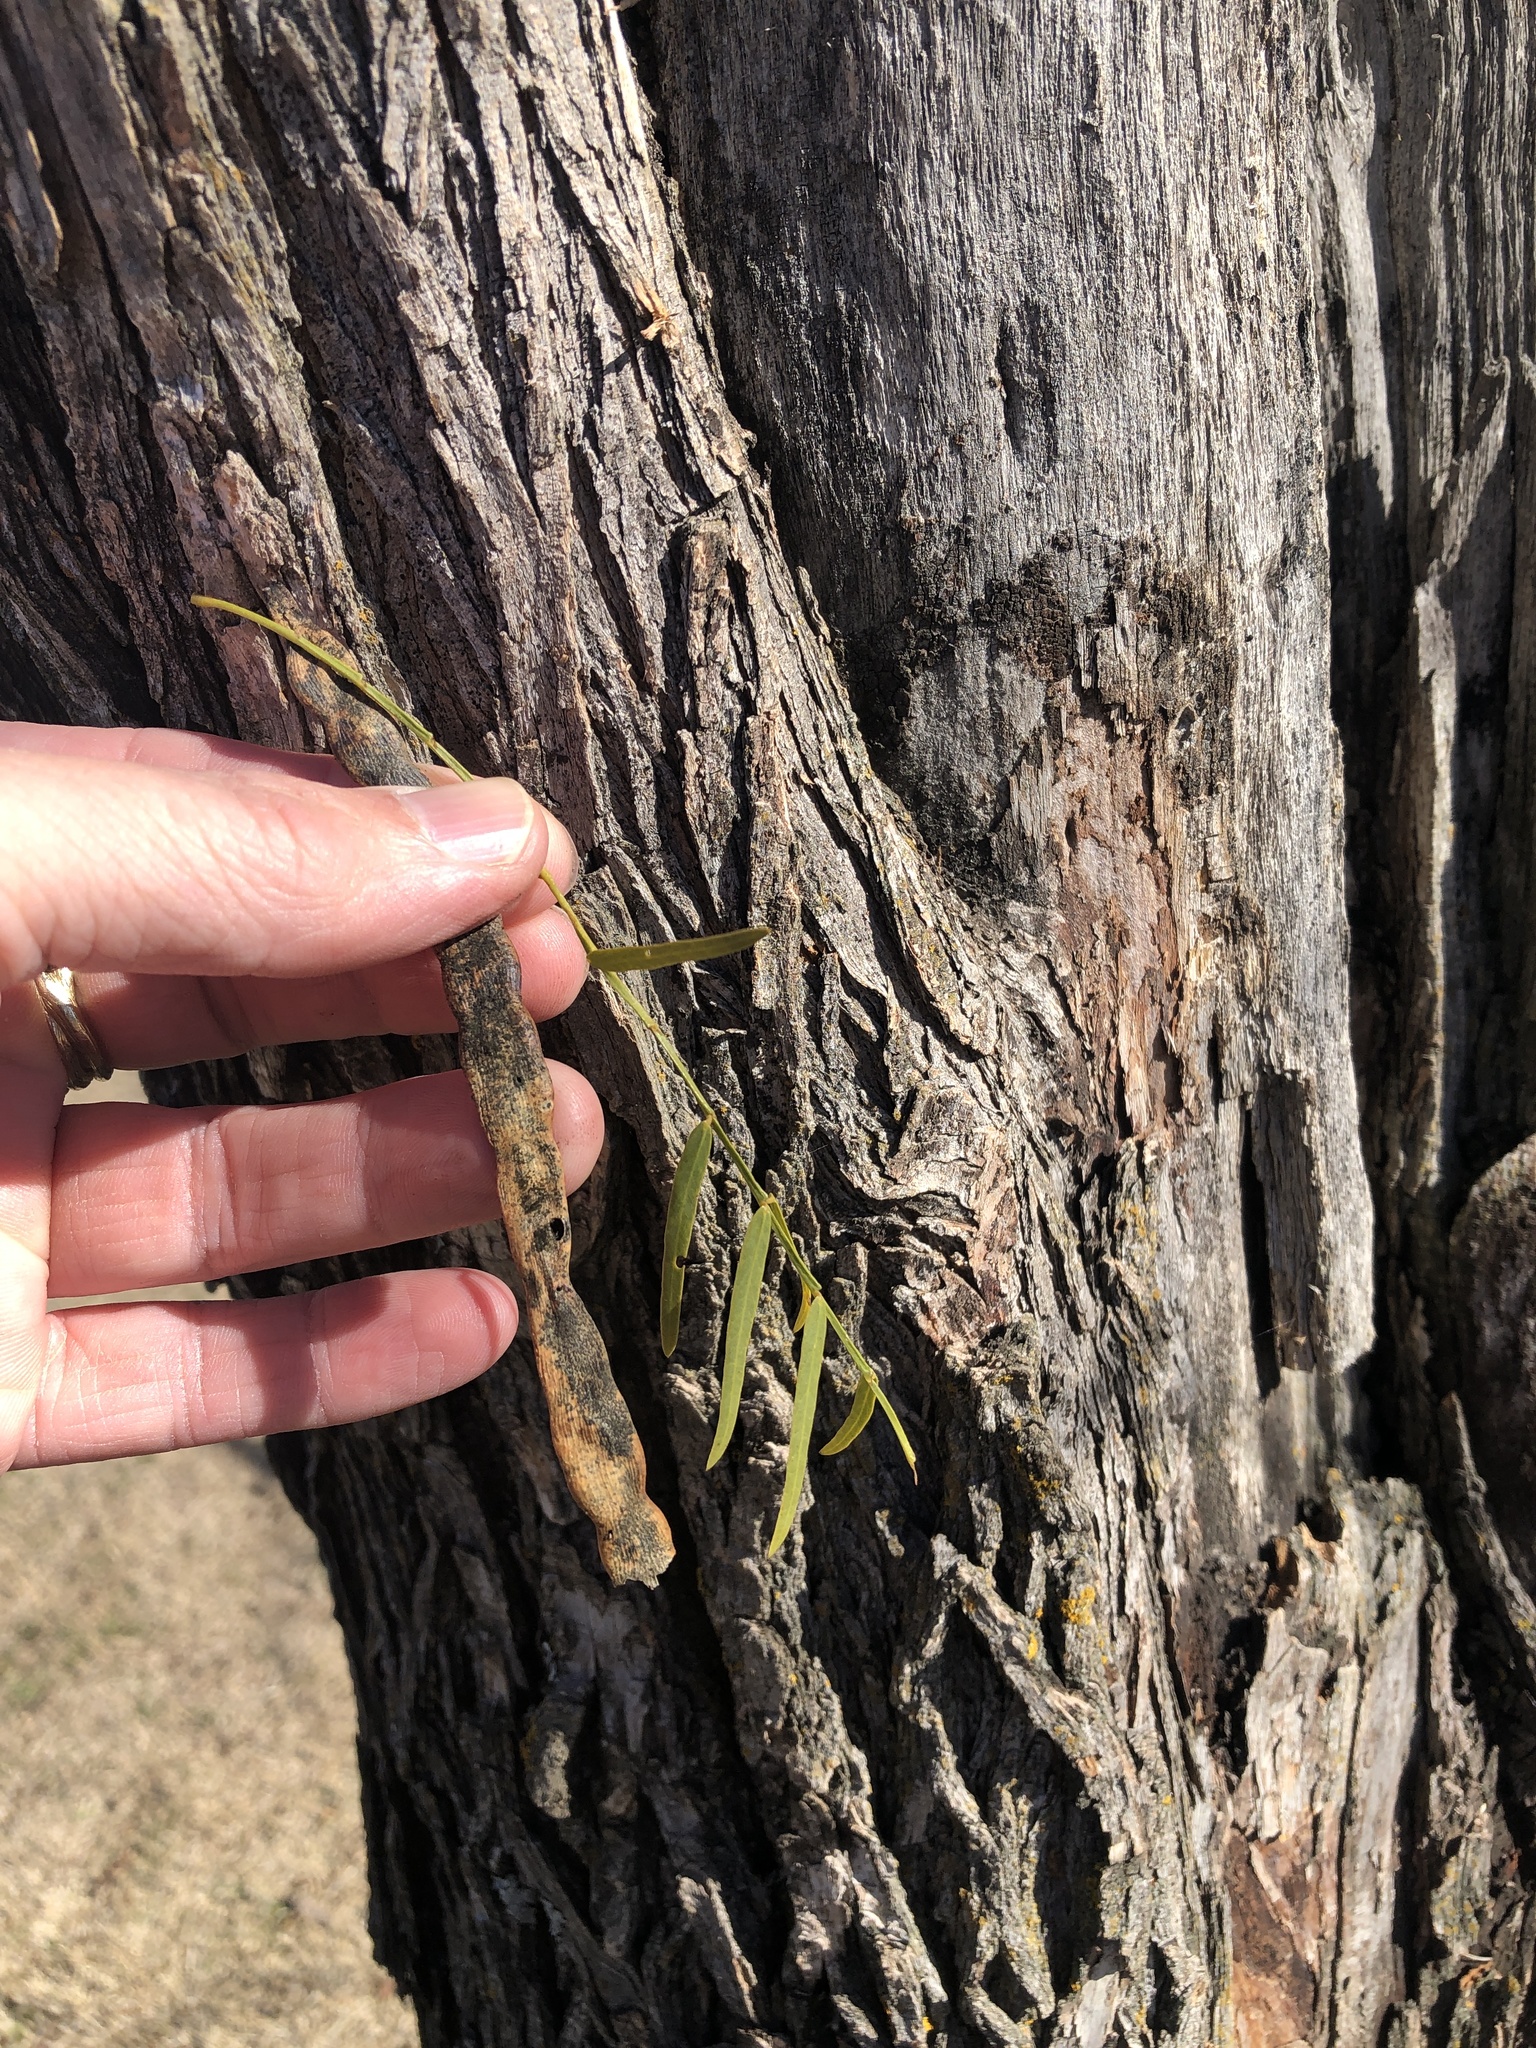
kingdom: Plantae
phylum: Tracheophyta
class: Magnoliopsida
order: Fabales
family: Fabaceae
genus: Prosopis
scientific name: Prosopis glandulosa
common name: Honey mesquite
